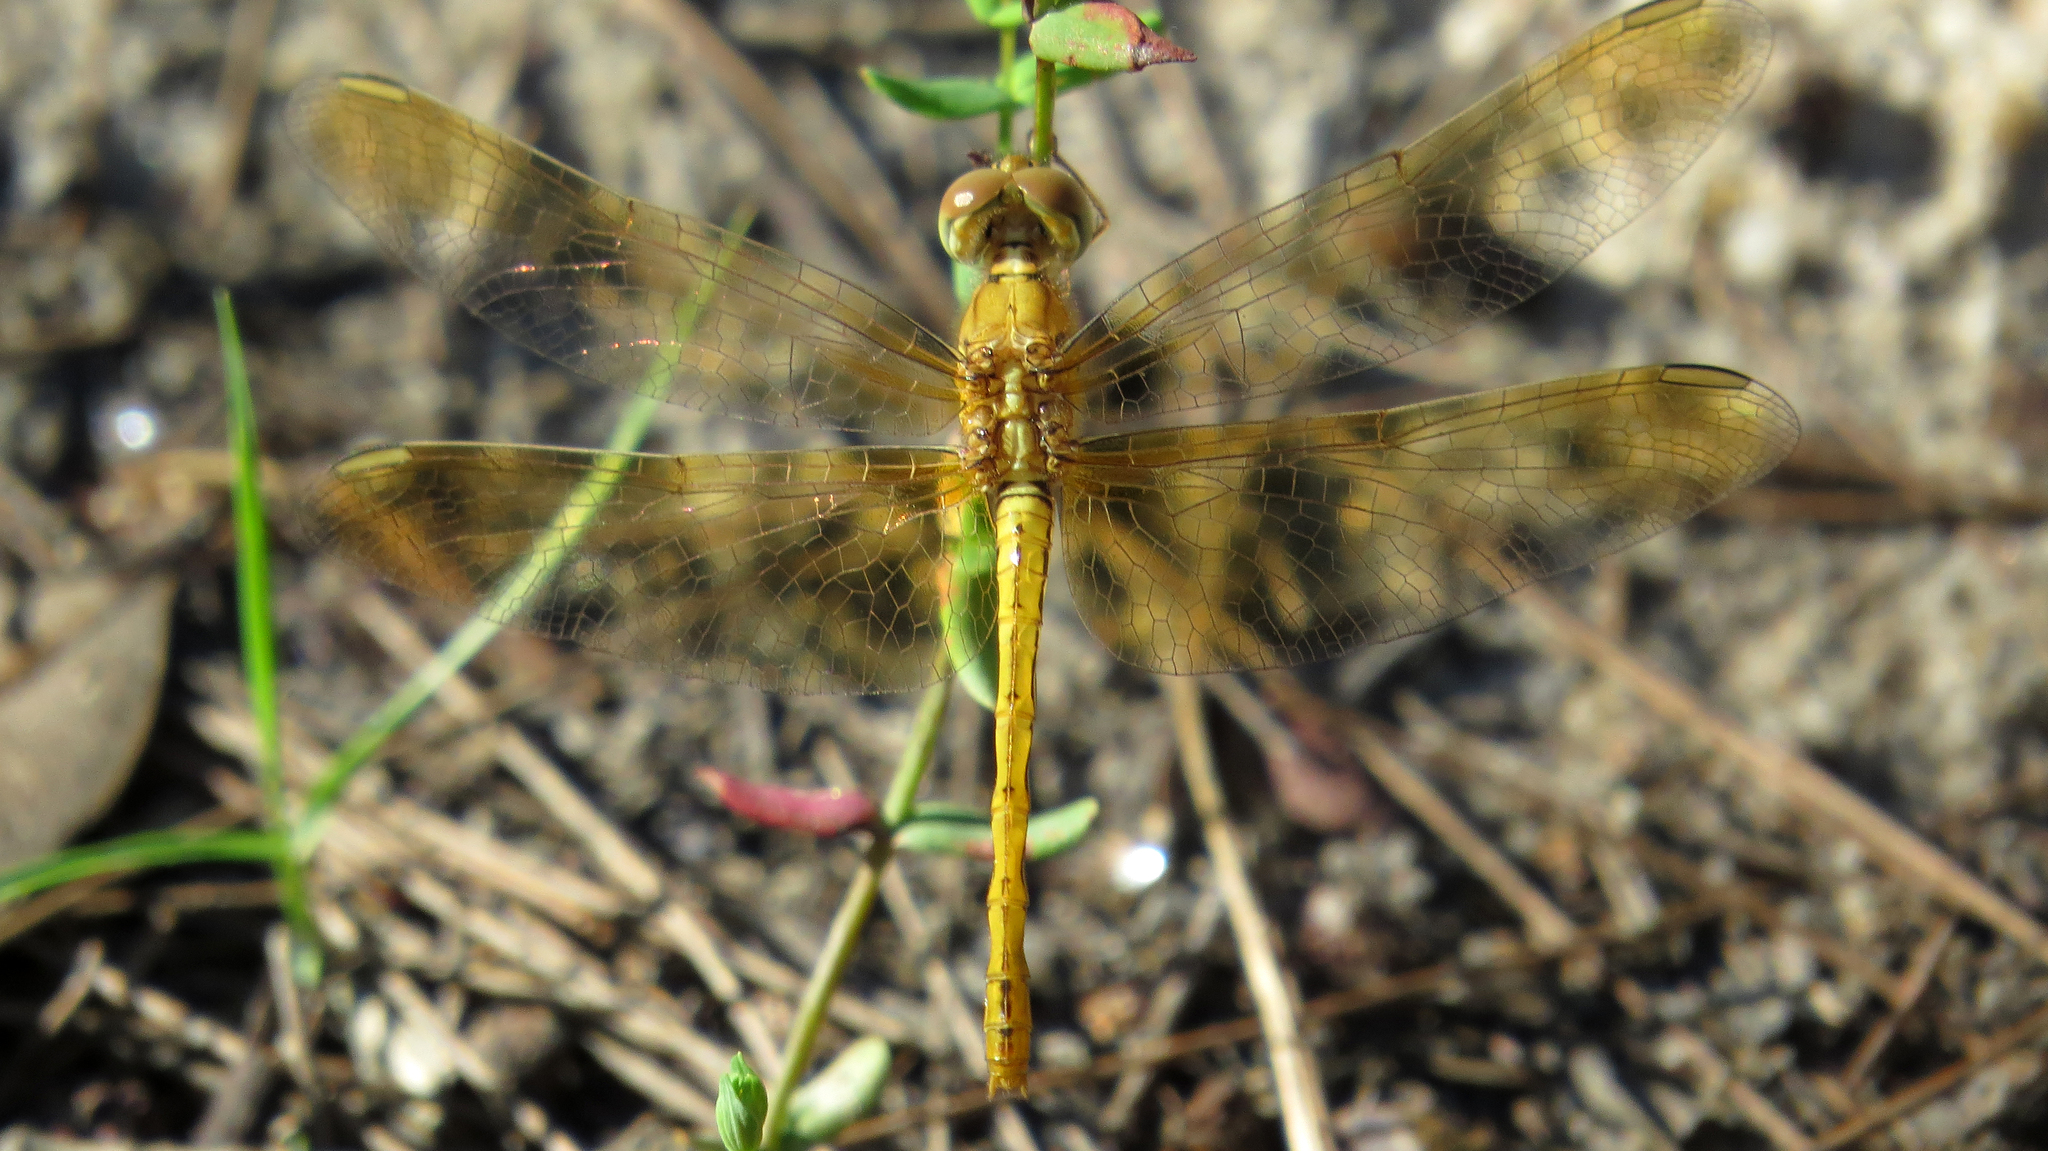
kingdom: Animalia
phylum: Arthropoda
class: Insecta
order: Odonata
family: Libellulidae
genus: Diplacodes
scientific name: Diplacodes haematodes
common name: Scarlet percher
